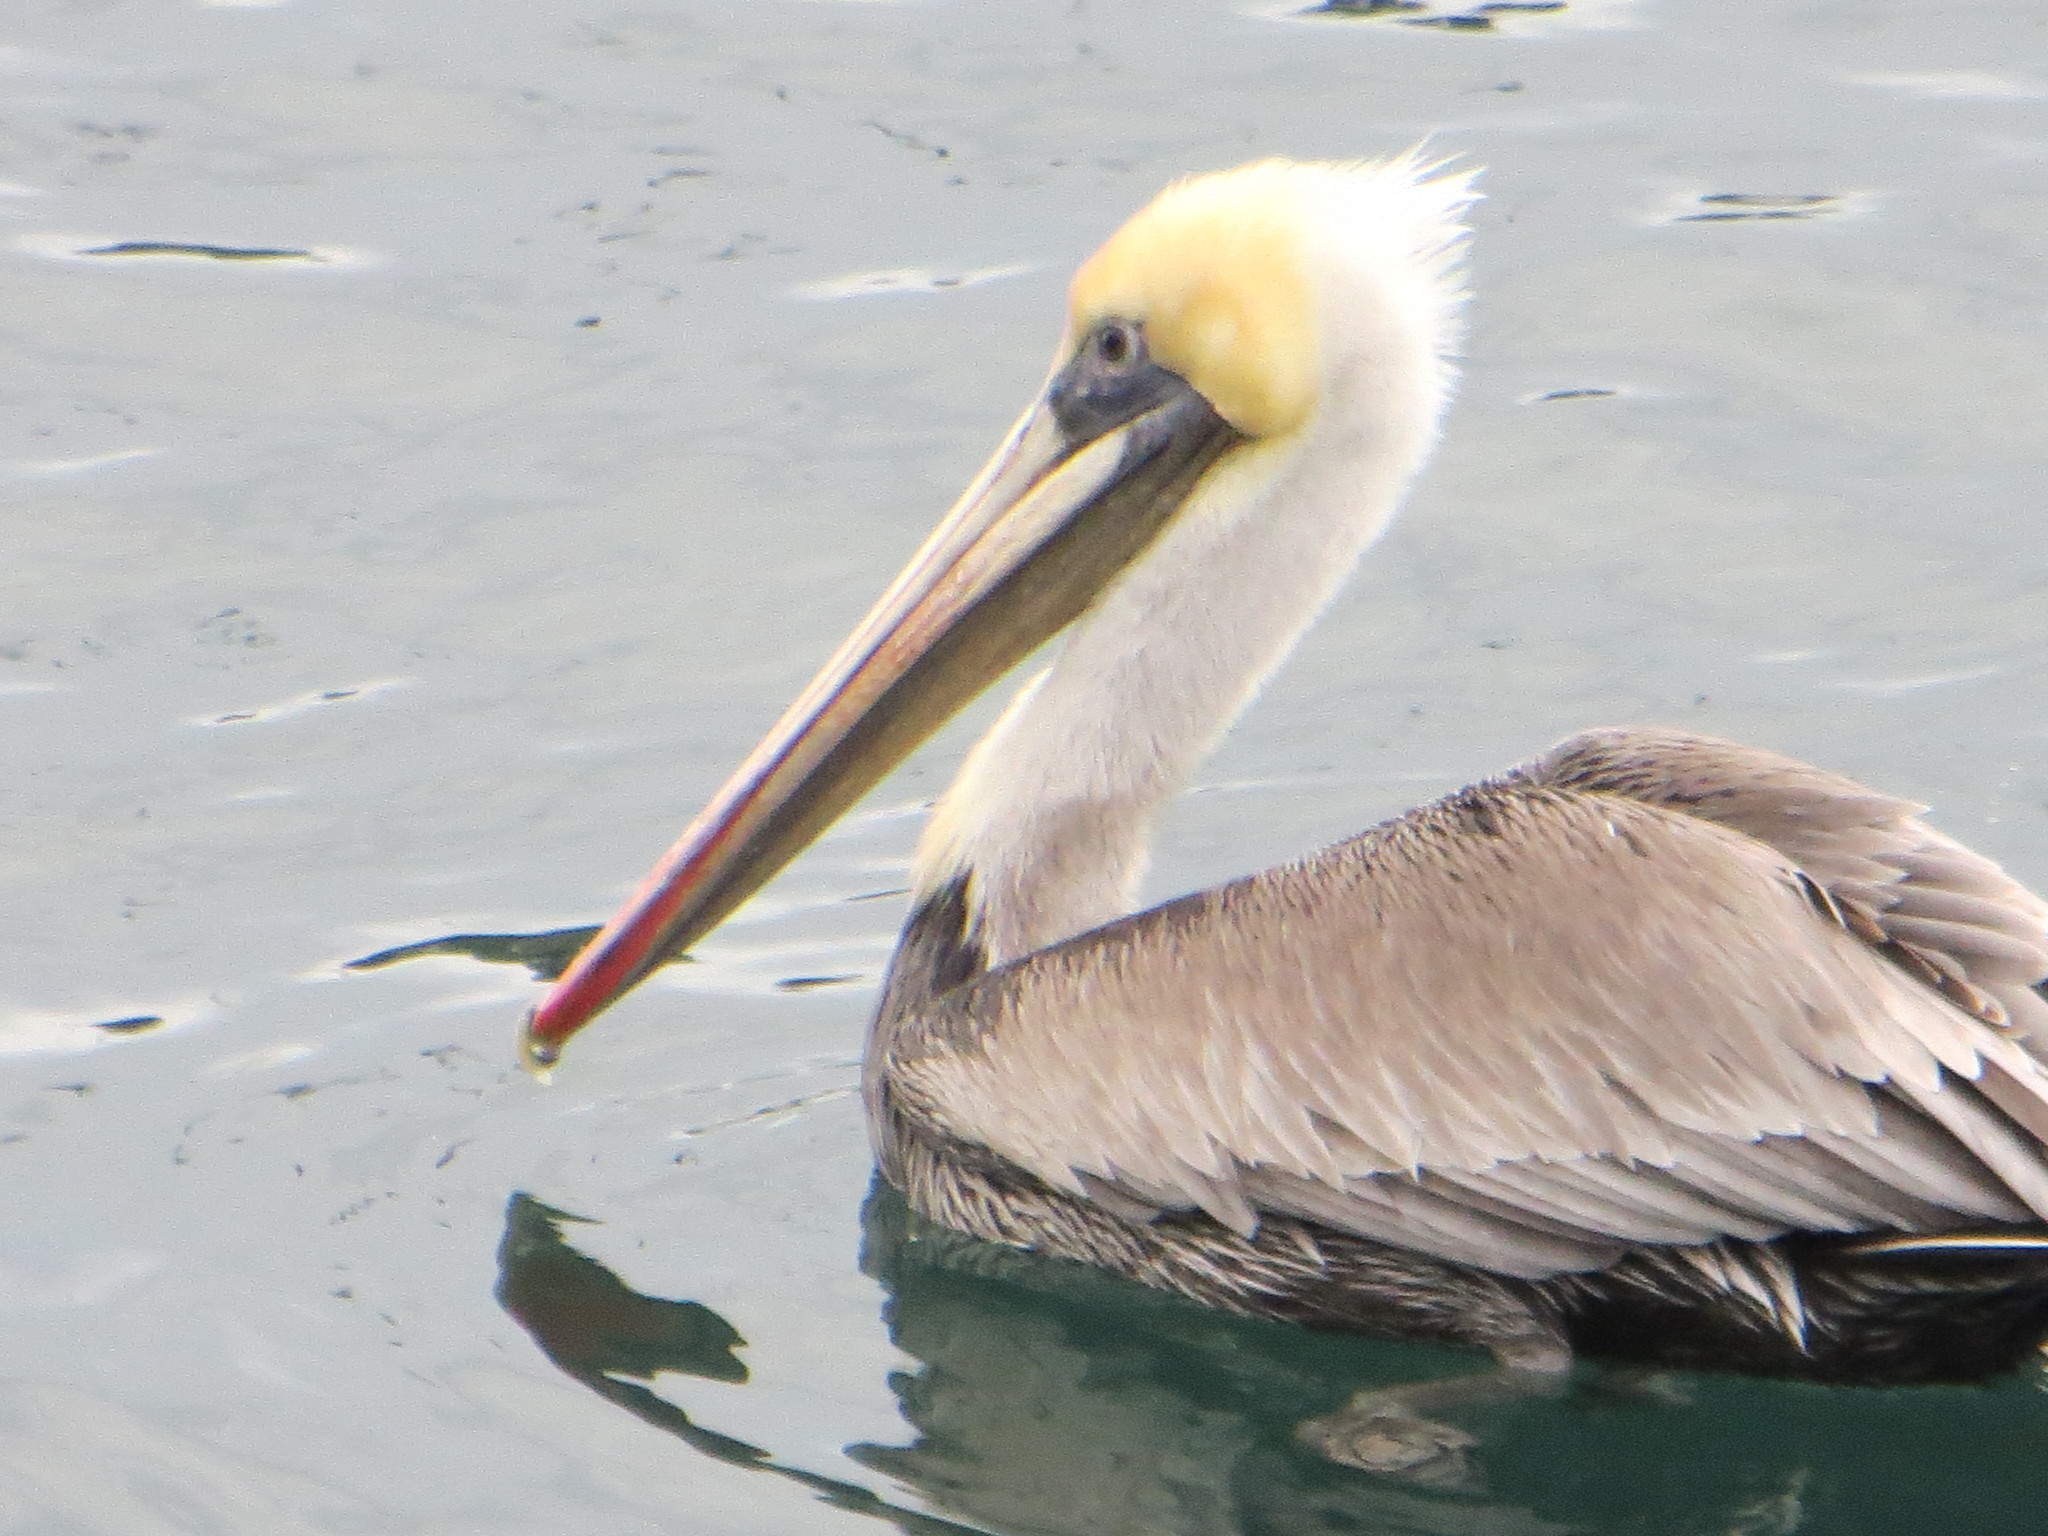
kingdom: Animalia
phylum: Chordata
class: Aves
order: Pelecaniformes
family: Pelecanidae
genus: Pelecanus
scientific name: Pelecanus occidentalis
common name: Brown pelican
